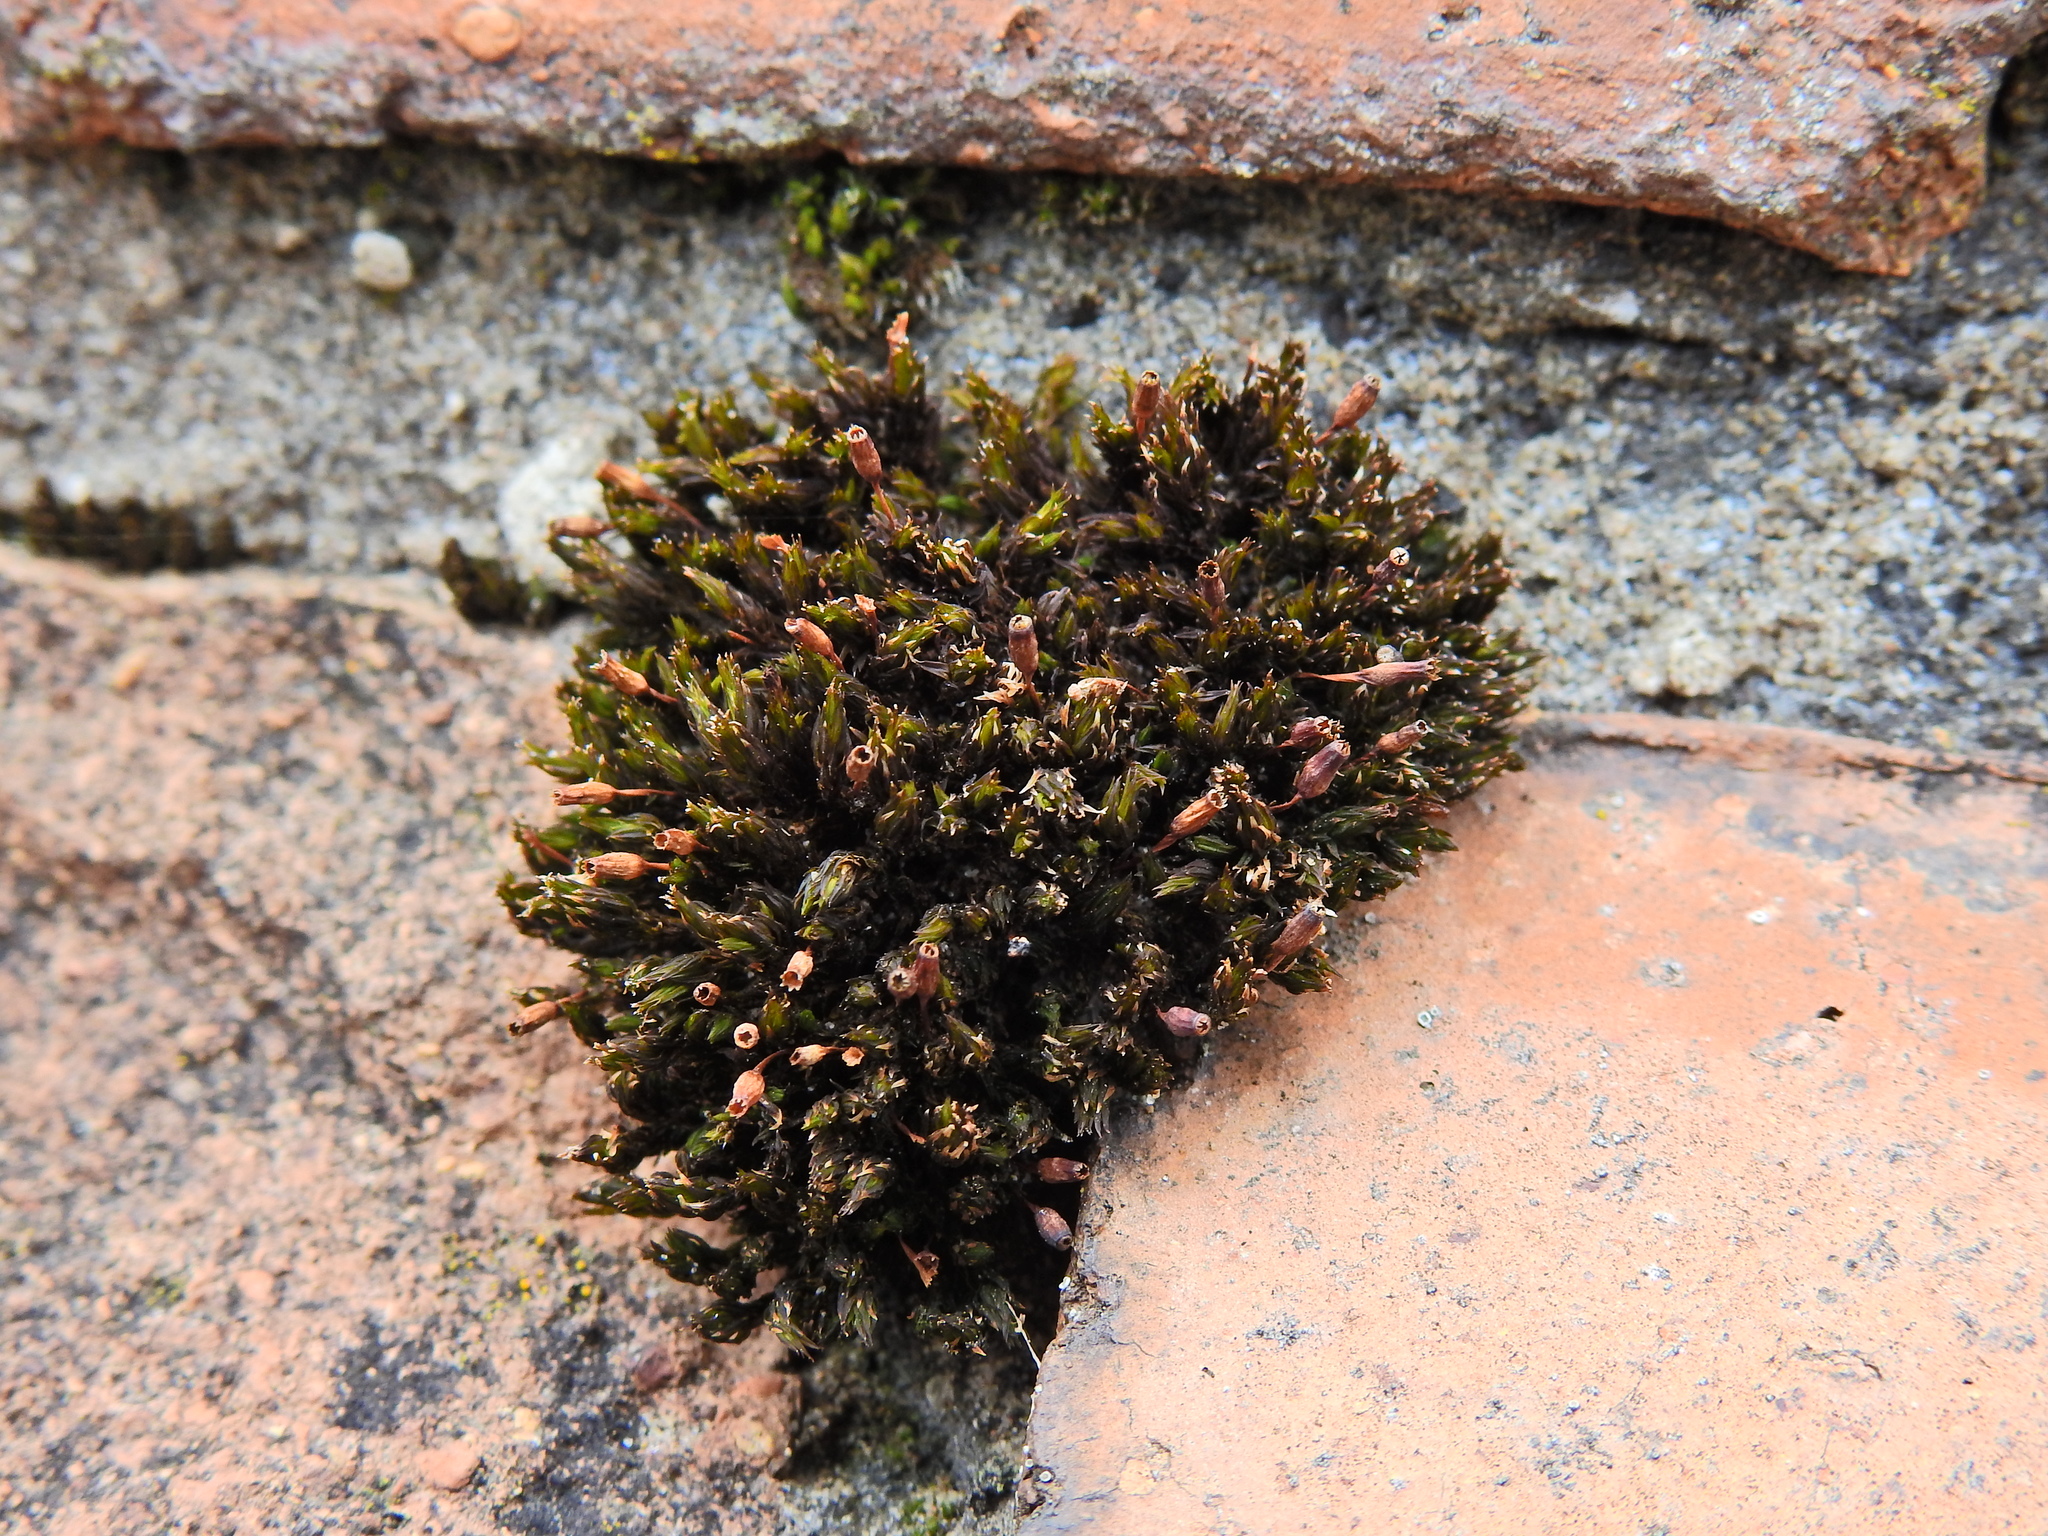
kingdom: Plantae
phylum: Bryophyta
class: Bryopsida
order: Orthotrichales
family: Orthotrichaceae
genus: Orthotrichum
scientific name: Orthotrichum anomalum
